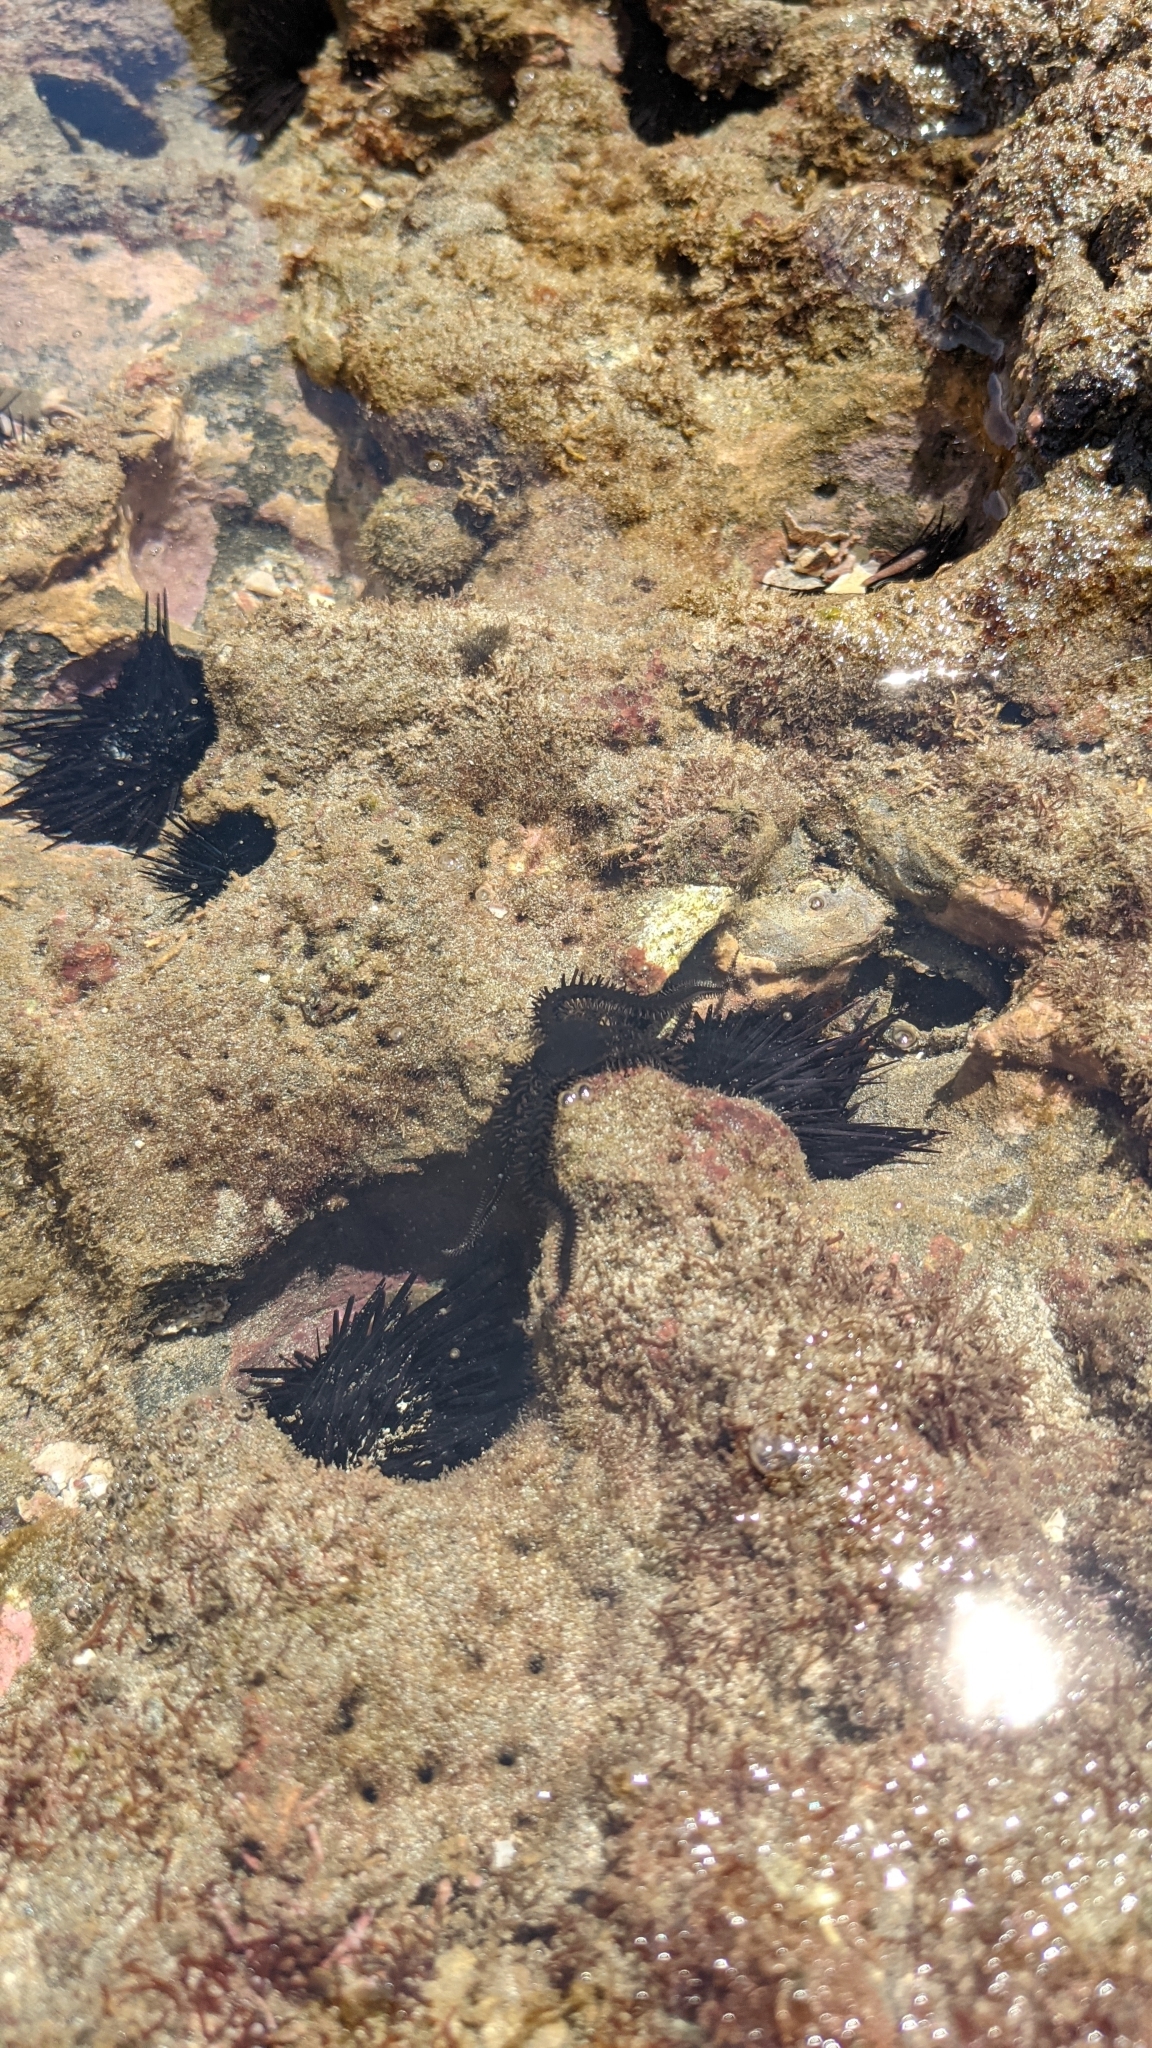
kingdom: Animalia
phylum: Echinodermata
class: Echinoidea
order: Camarodonta
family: Echinometridae
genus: Echinometra
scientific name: Echinometra vanbrunti
